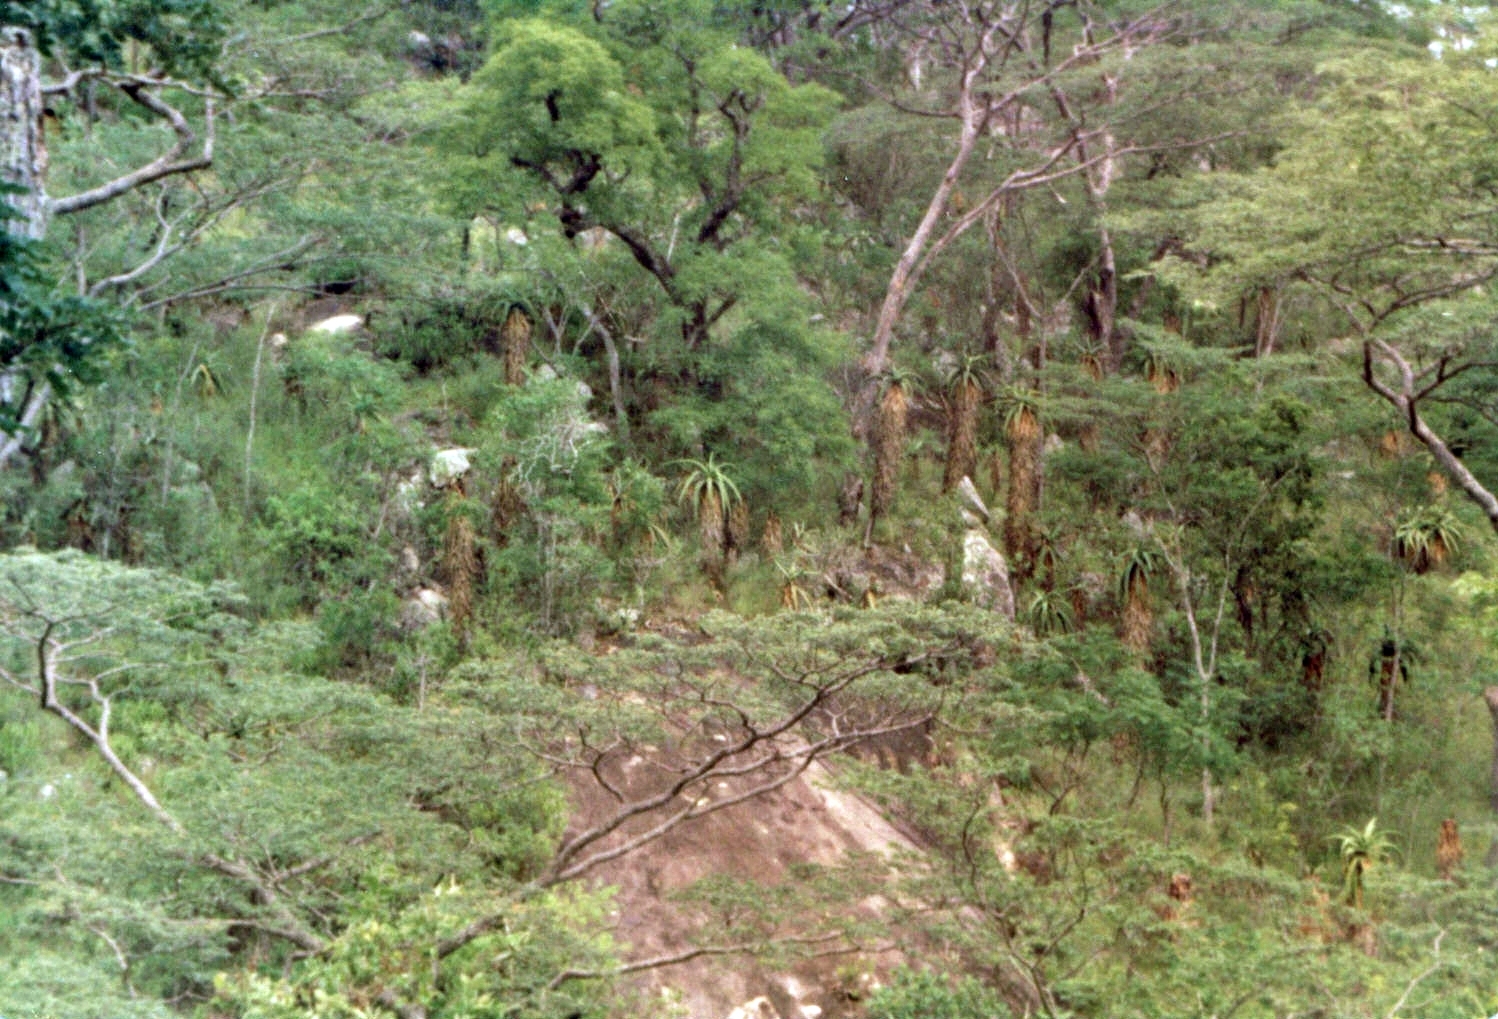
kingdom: Plantae
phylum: Tracheophyta
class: Liliopsida
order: Asparagales
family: Asphodelaceae
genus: Aloe
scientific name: Aloe excelsa
